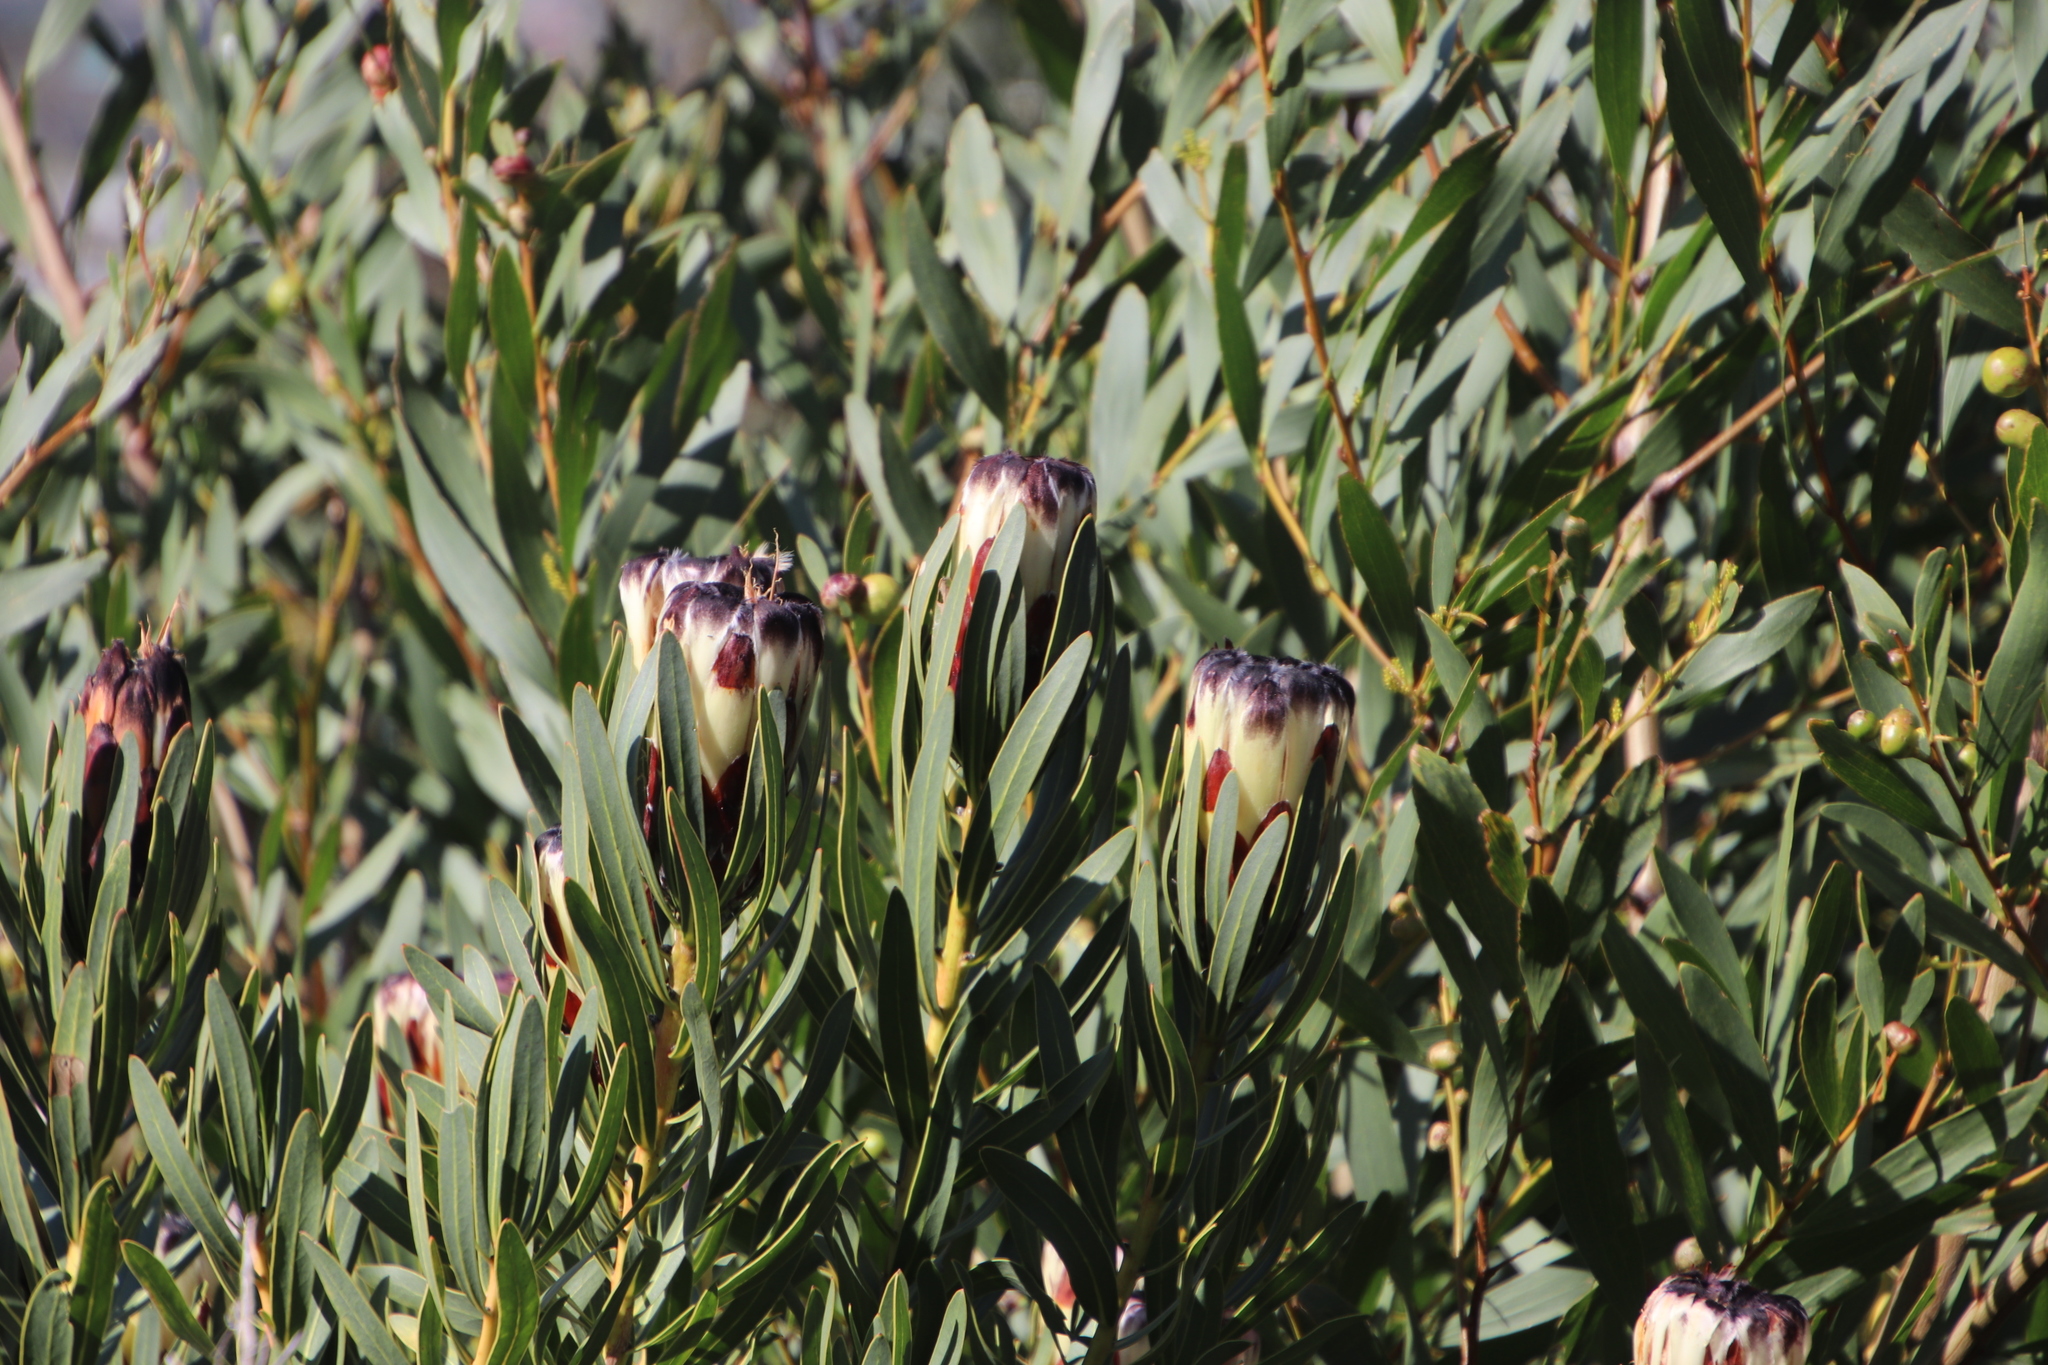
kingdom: Plantae
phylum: Tracheophyta
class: Magnoliopsida
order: Proteales
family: Proteaceae
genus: Protea
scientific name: Protea lepidocarpodendron
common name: Black-bearded protea
